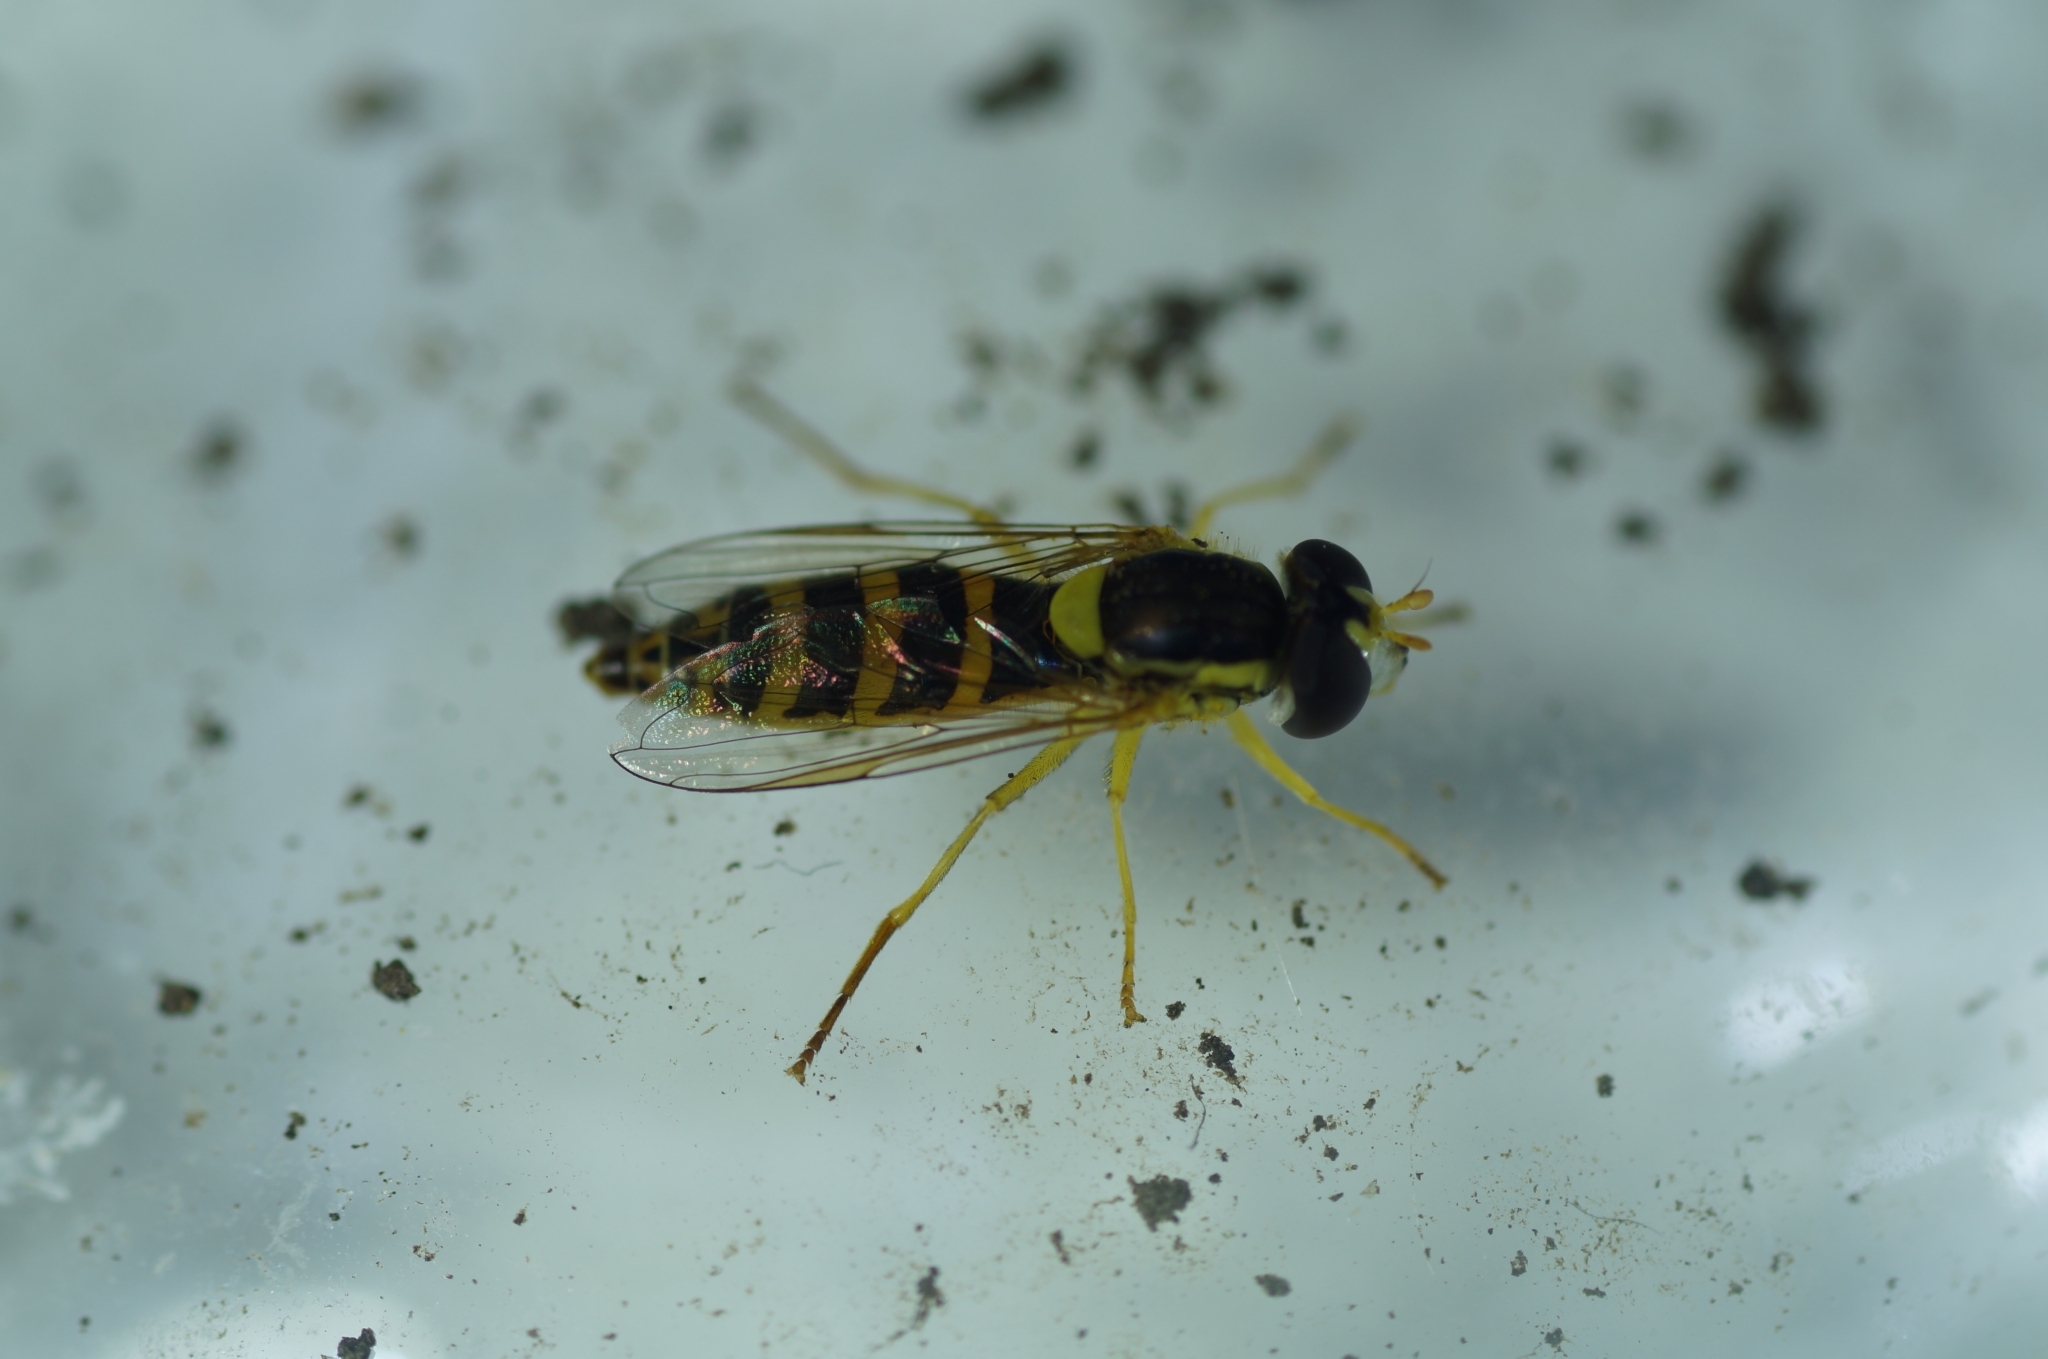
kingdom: Animalia
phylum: Arthropoda
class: Insecta
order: Diptera
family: Syrphidae
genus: Sphaerophoria
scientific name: Sphaerophoria
